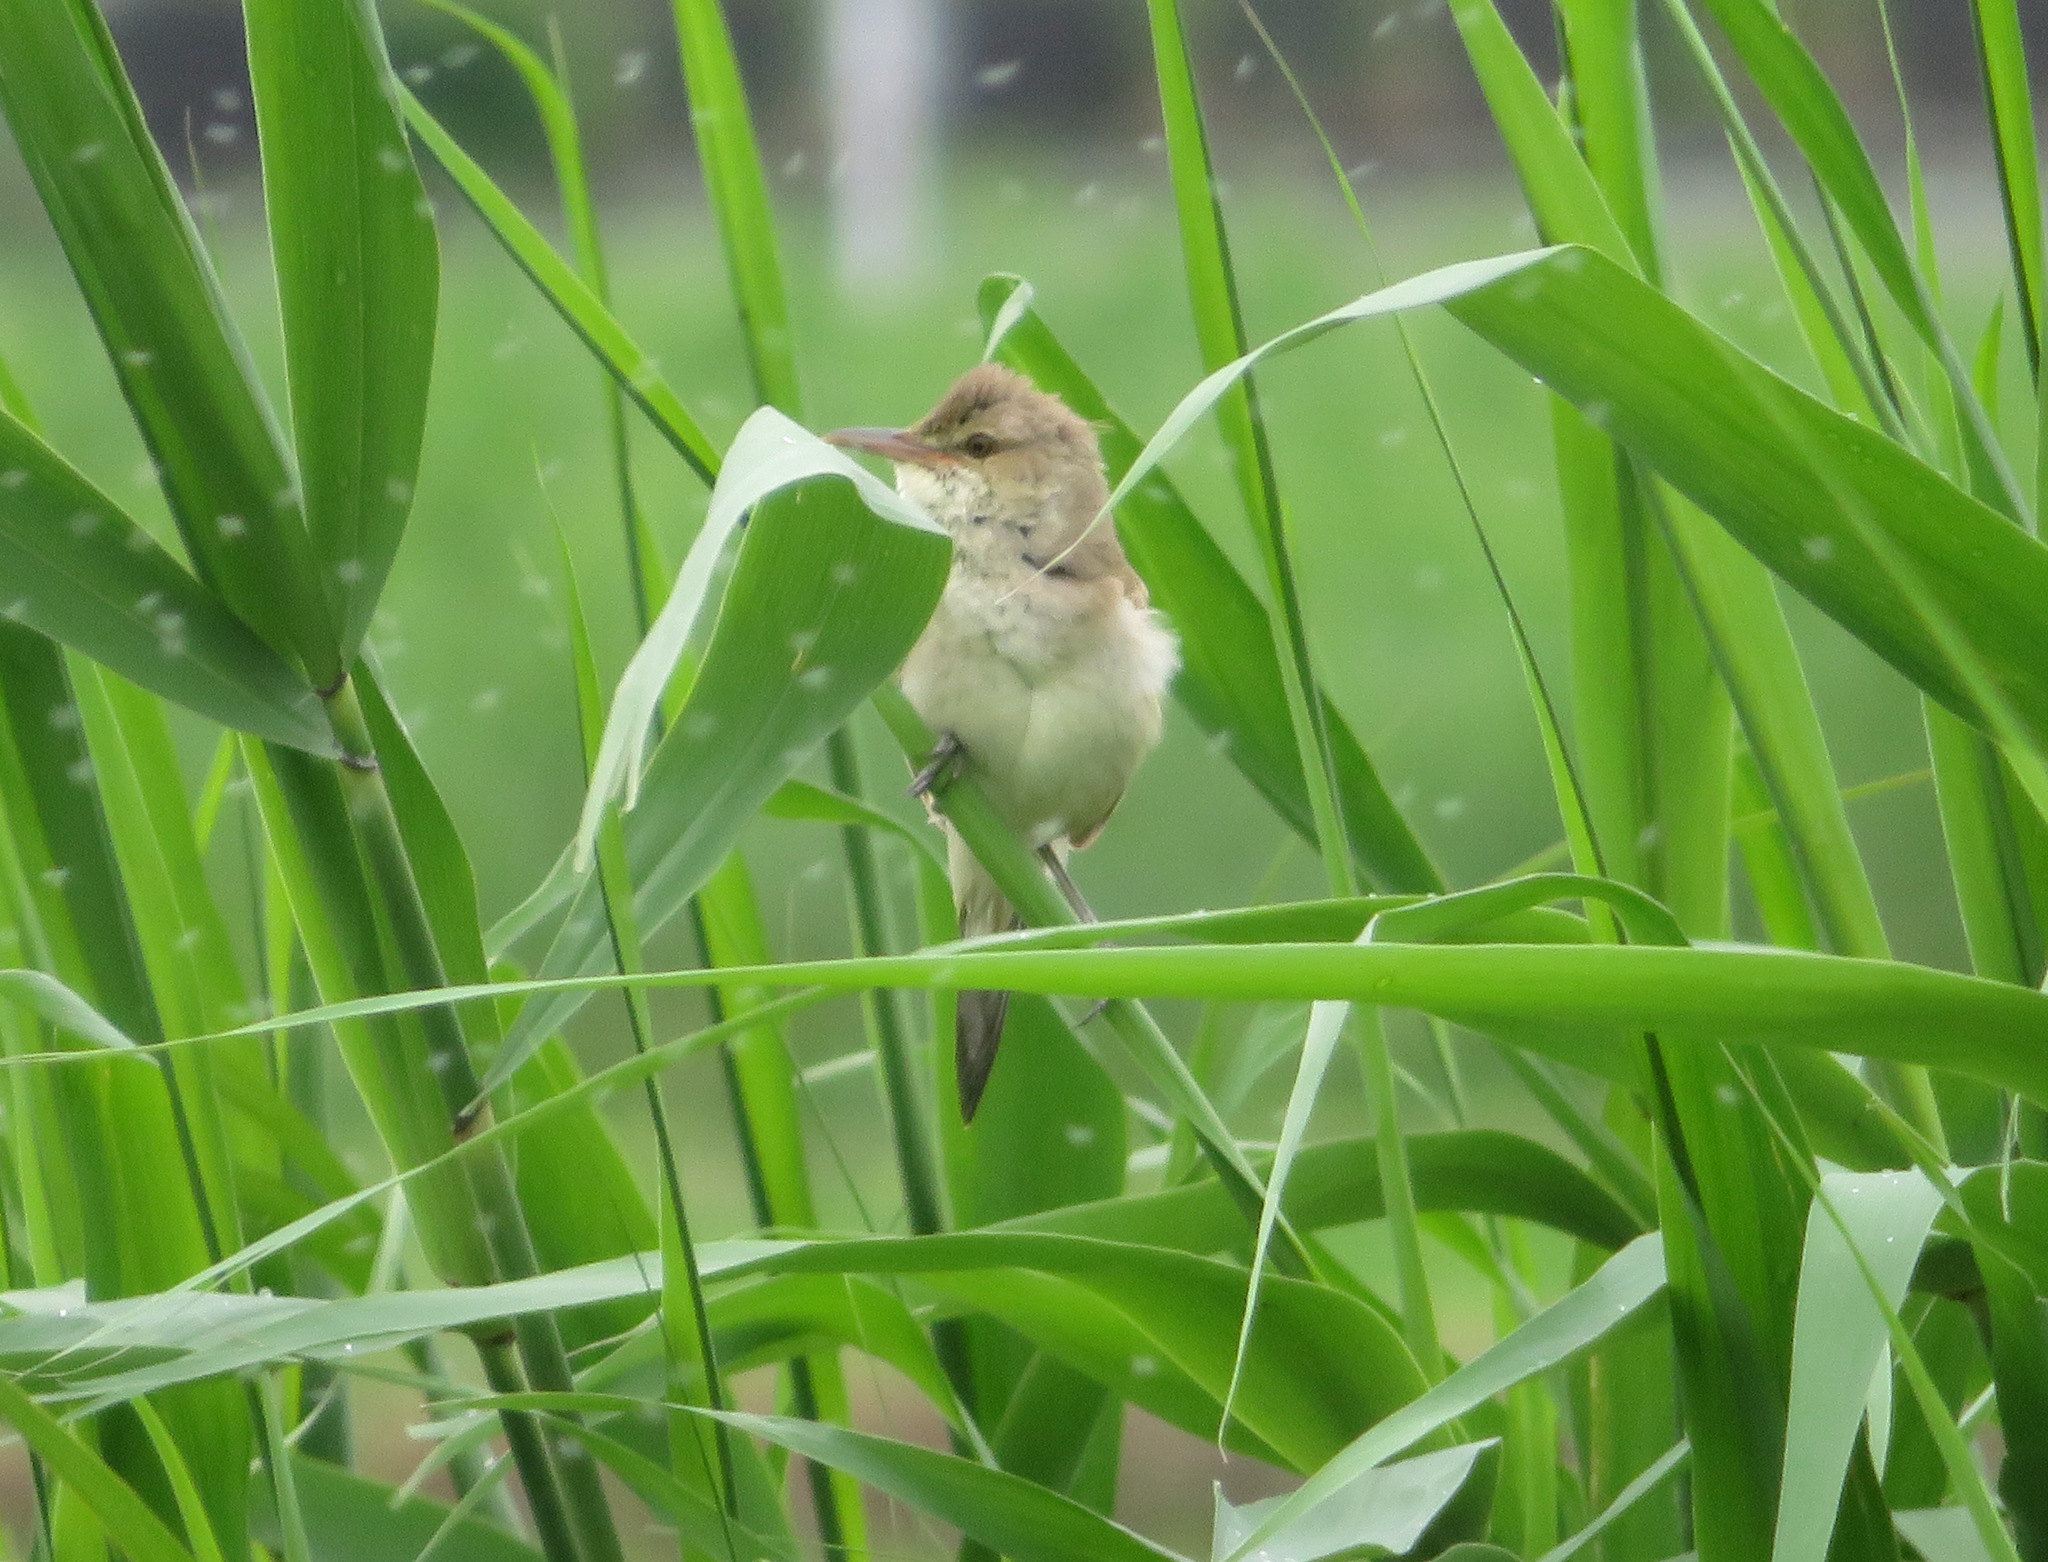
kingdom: Animalia
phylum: Chordata
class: Aves
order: Passeriformes
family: Acrocephalidae
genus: Acrocephalus
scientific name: Acrocephalus orientalis
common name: Oriental reed warbler
